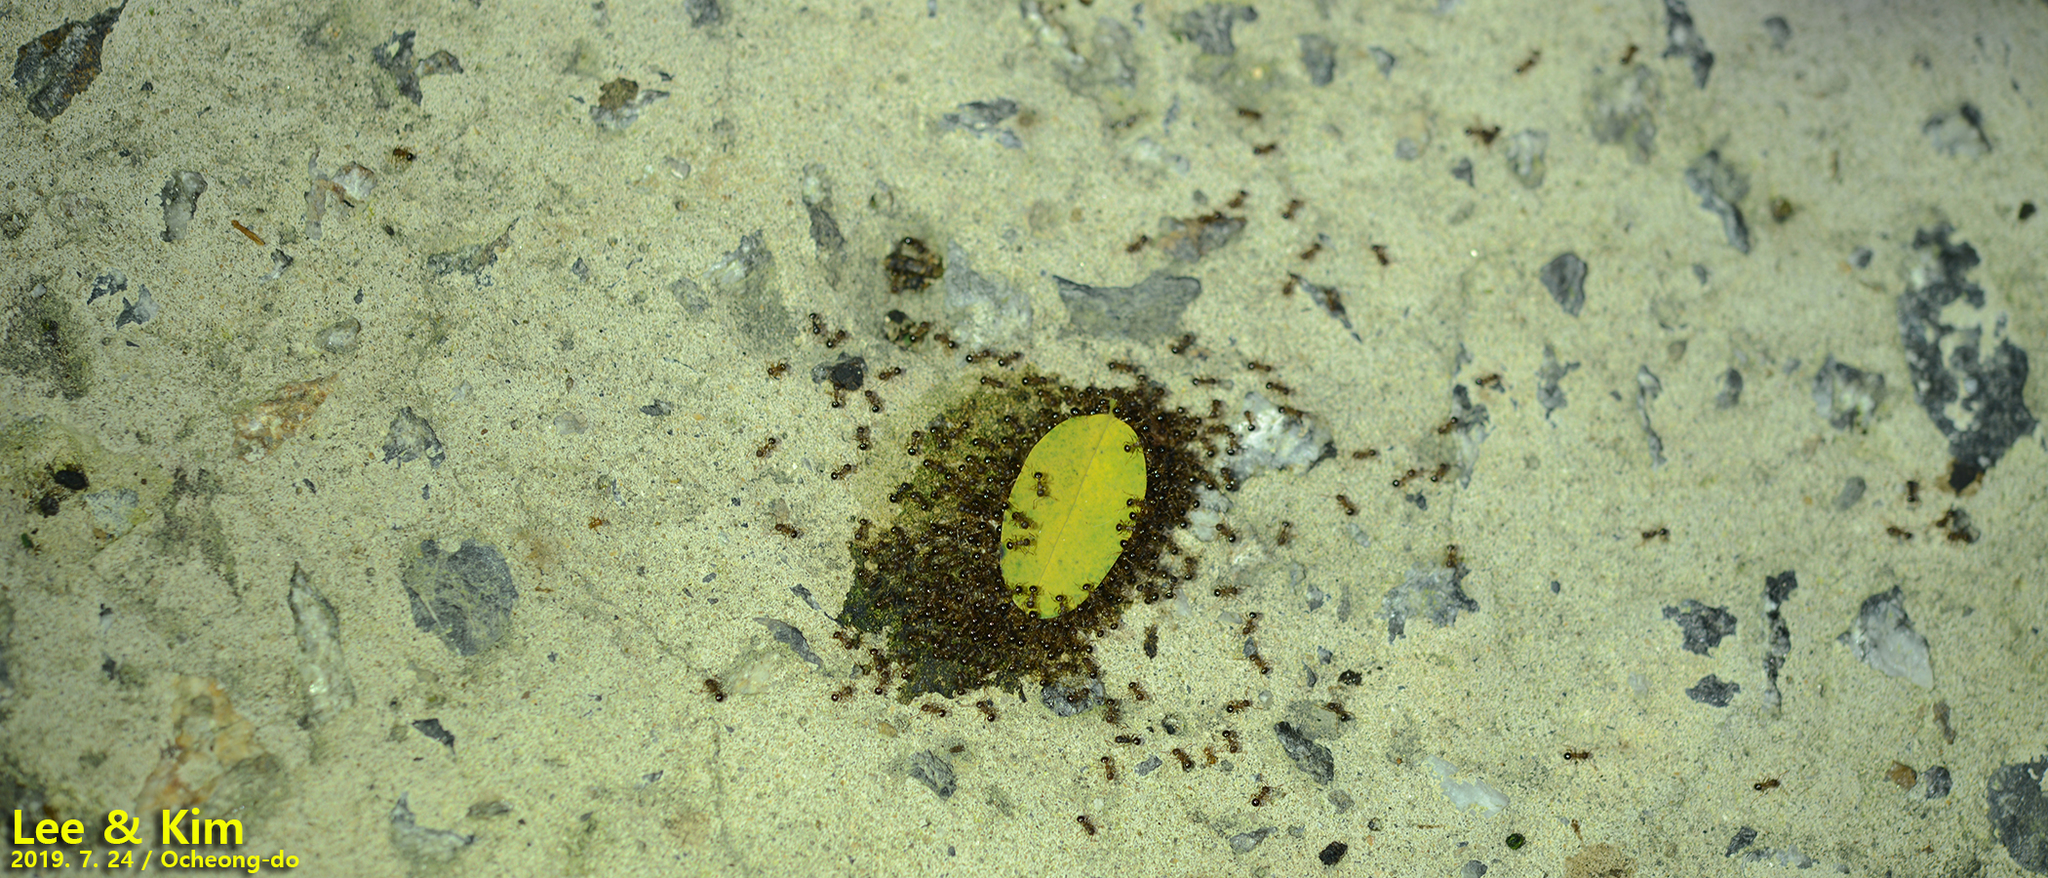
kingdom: Animalia
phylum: Arthropoda
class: Insecta
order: Hymenoptera
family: Formicidae
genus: Pristomyrmex
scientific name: Pristomyrmex punctatus
